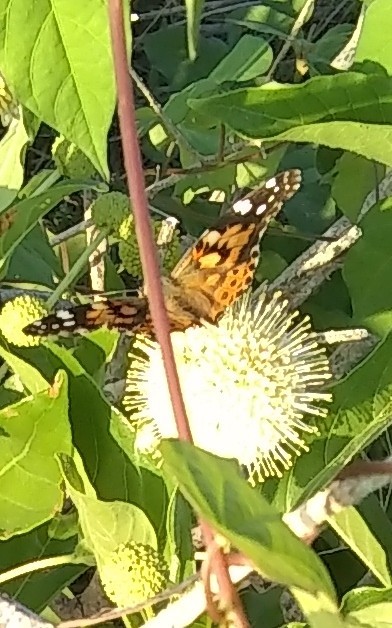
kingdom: Animalia
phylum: Arthropoda
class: Insecta
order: Lepidoptera
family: Nymphalidae
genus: Vanessa
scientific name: Vanessa cardui
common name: Painted lady
